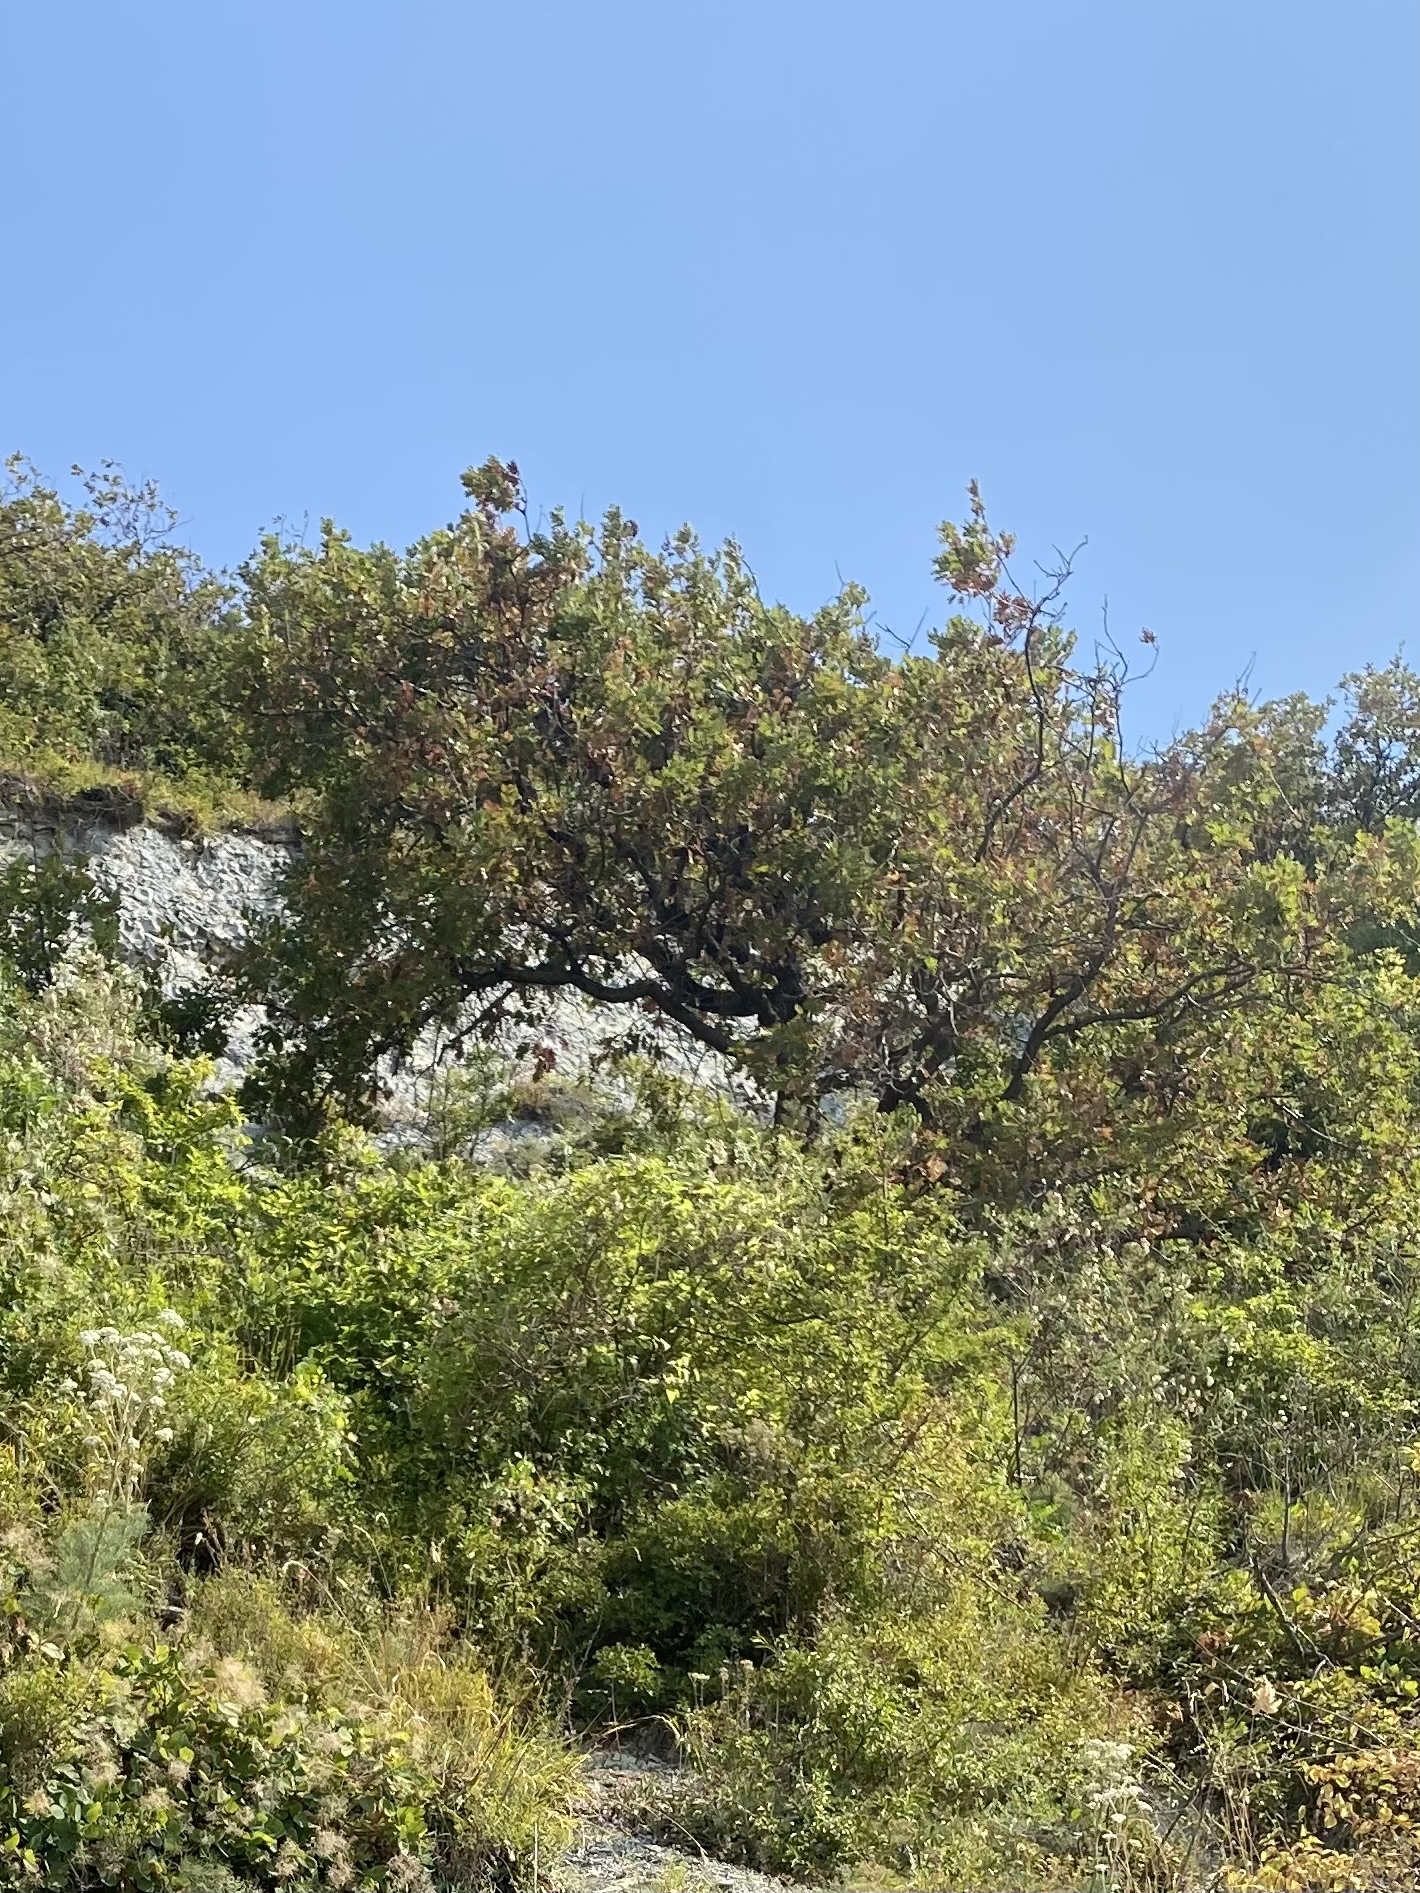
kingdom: Plantae
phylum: Tracheophyta
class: Magnoliopsida
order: Apiales
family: Apiaceae
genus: Seseli
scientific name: Seseli ponticum
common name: Pontic seseli
